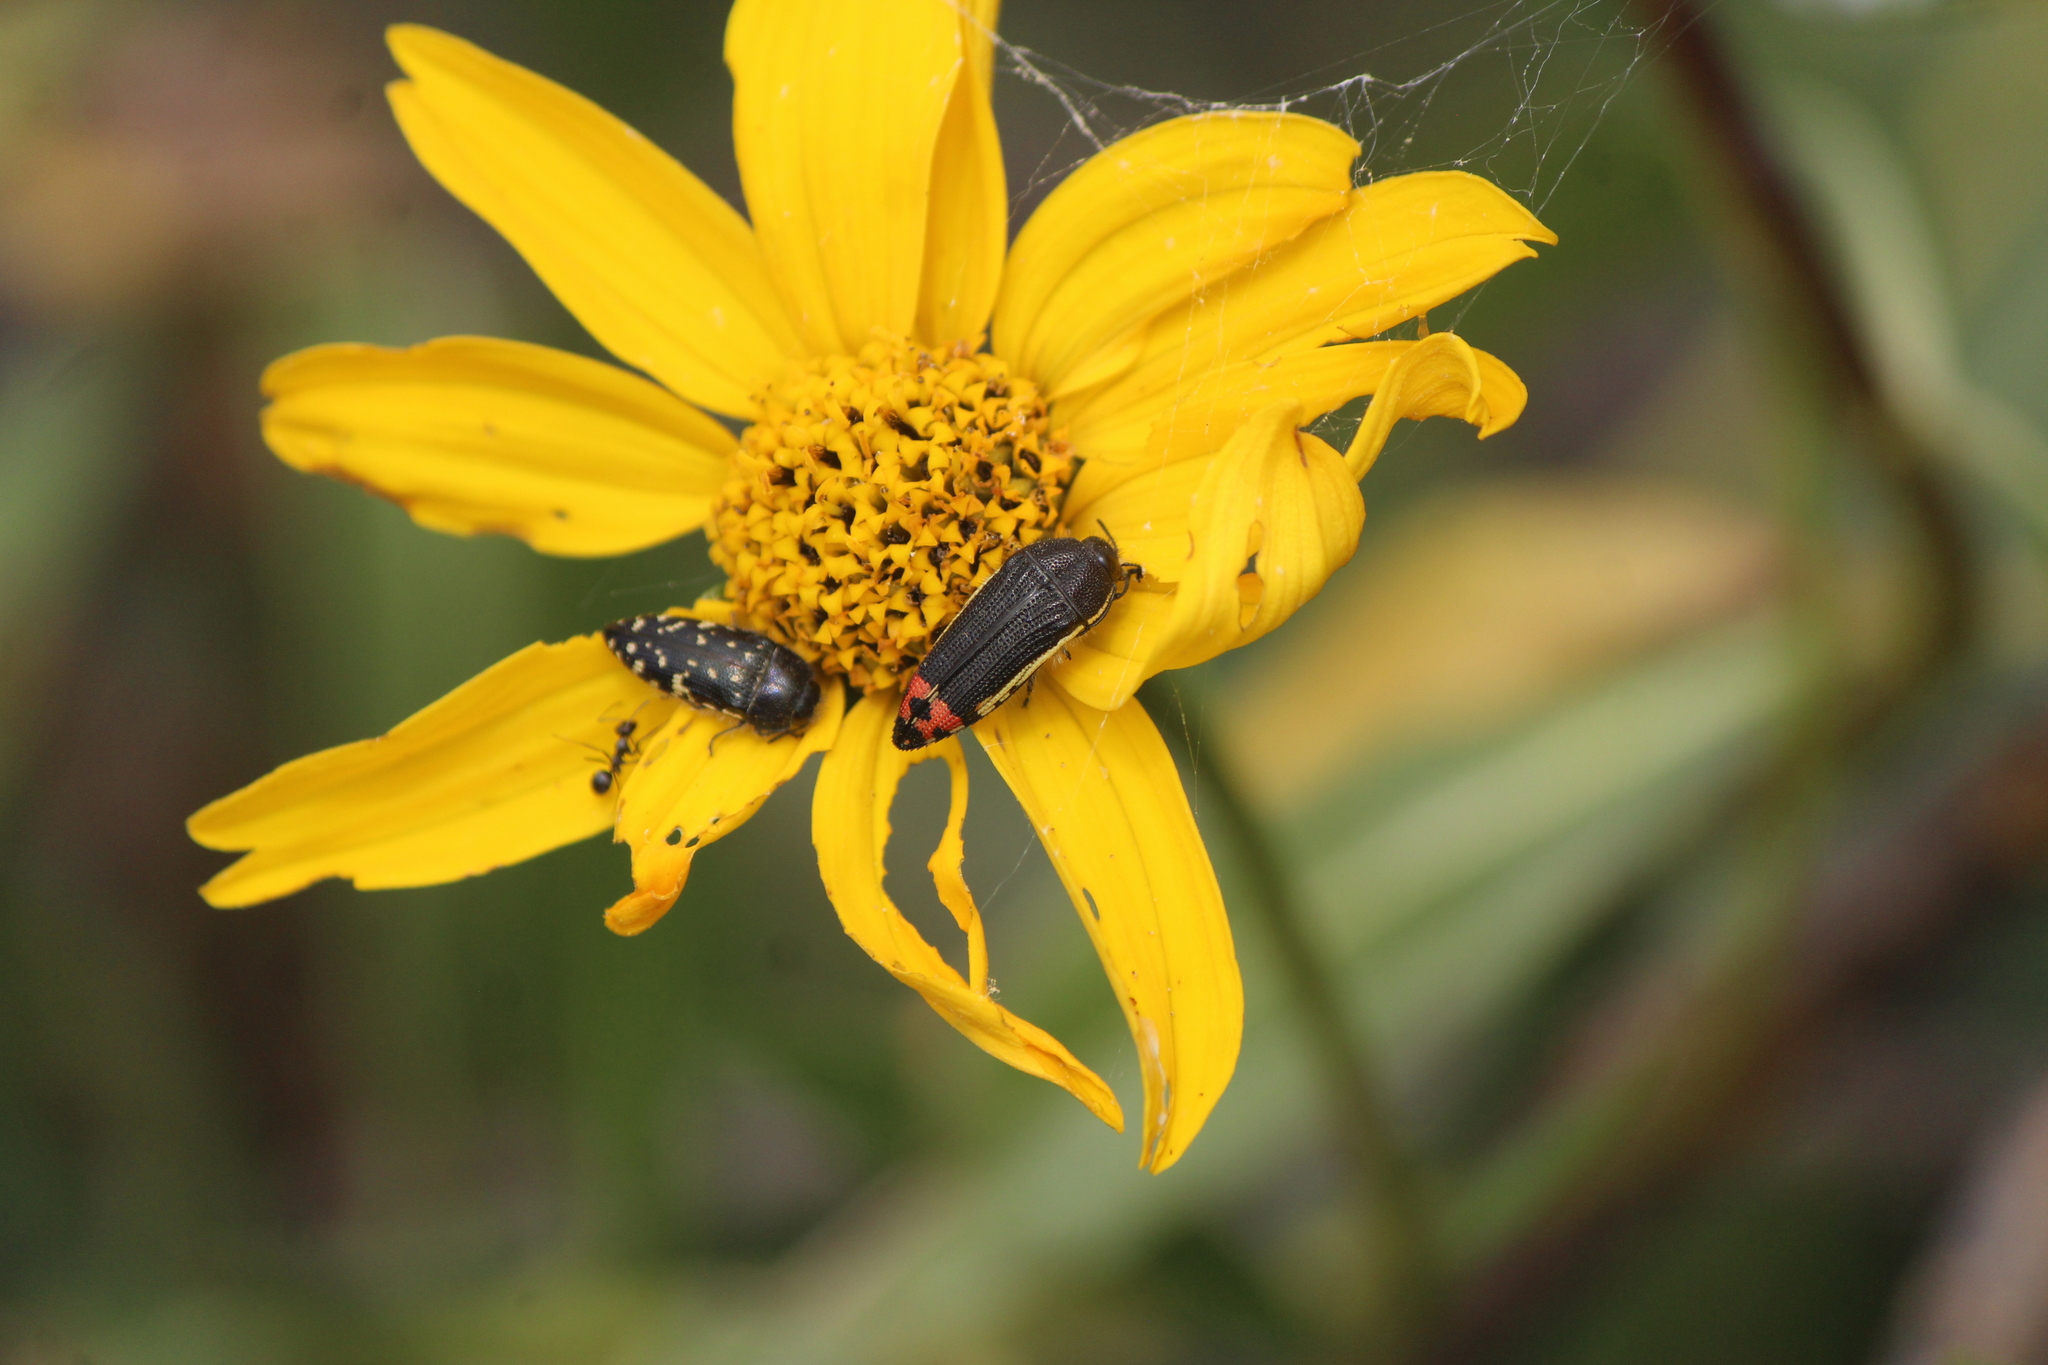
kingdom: Animalia
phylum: Arthropoda
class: Insecta
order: Coleoptera
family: Buprestidae
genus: Acmaeodera
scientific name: Acmaeodera flavomarginata
